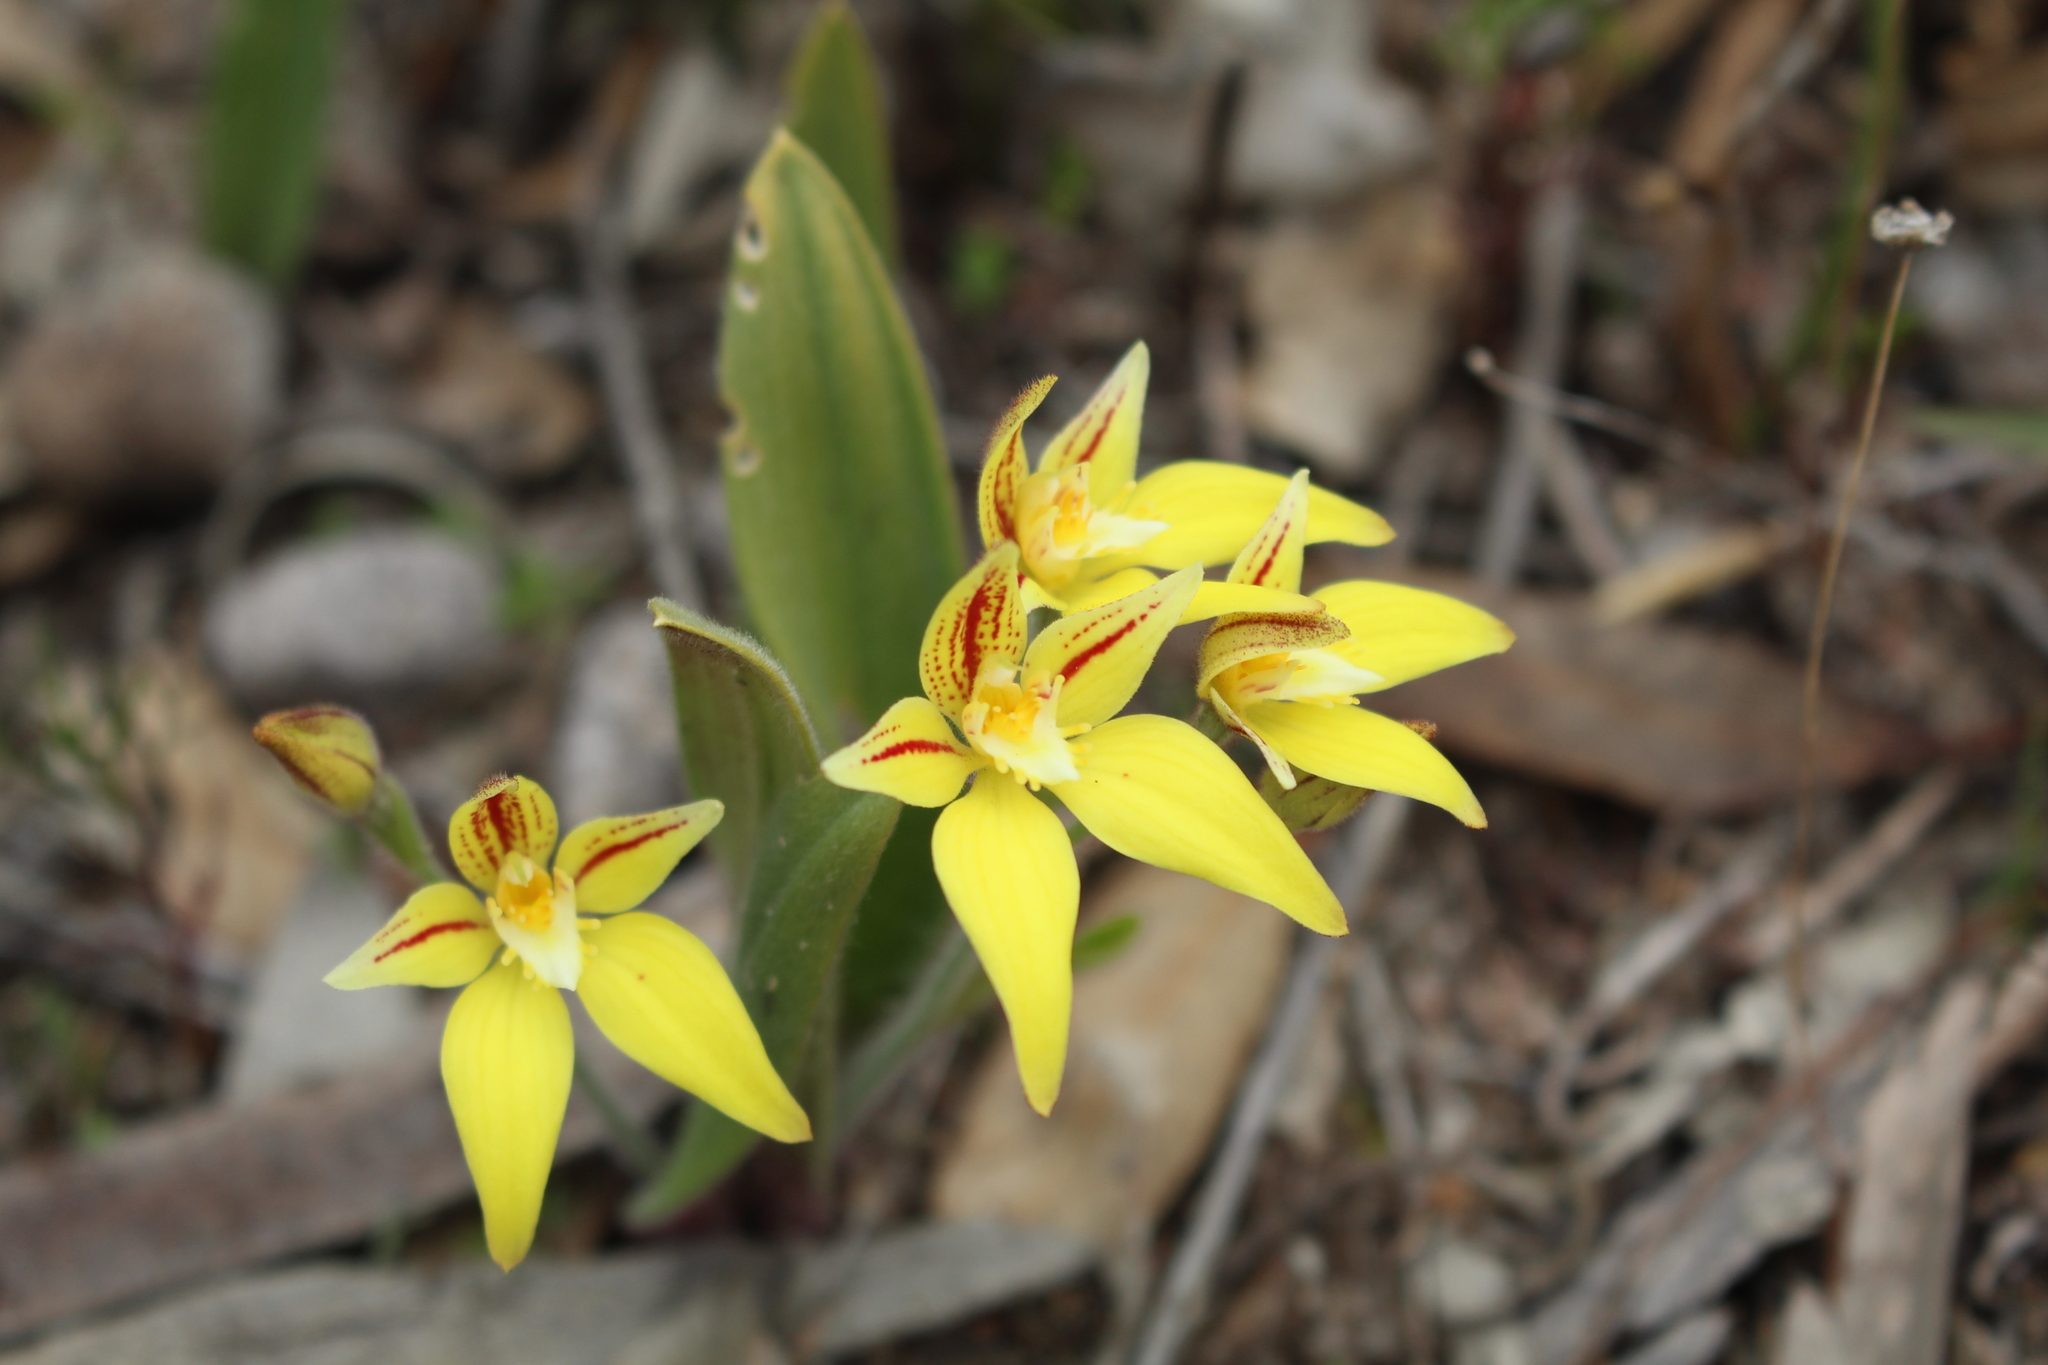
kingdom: Plantae
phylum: Tracheophyta
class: Liliopsida
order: Asparagales
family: Orchidaceae
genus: Caladenia
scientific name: Caladenia flava
